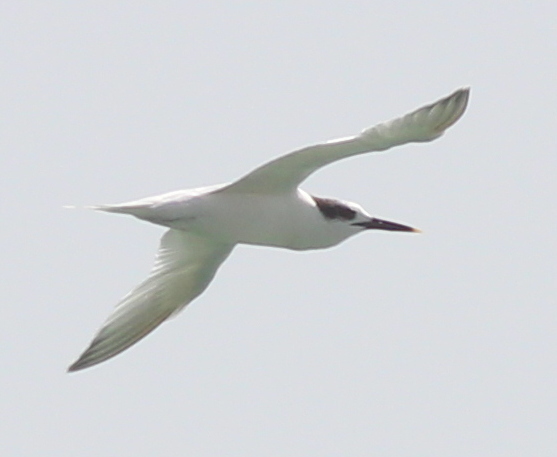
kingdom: Animalia
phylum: Chordata
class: Aves
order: Charadriiformes
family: Laridae
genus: Thalasseus
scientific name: Thalasseus sandvicensis
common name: Sandwich tern
